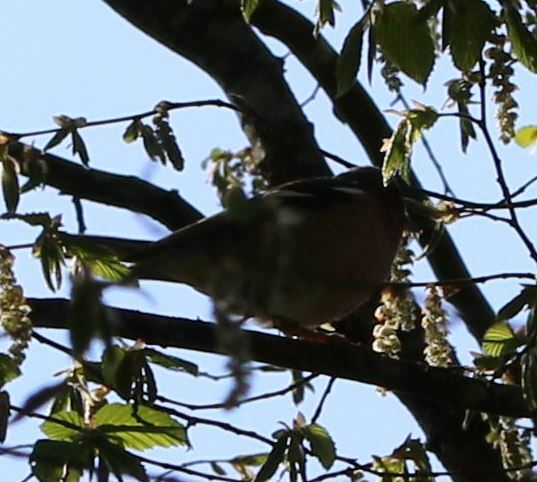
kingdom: Animalia
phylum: Chordata
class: Aves
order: Passeriformes
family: Fringillidae
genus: Fringilla
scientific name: Fringilla coelebs
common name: Common chaffinch
